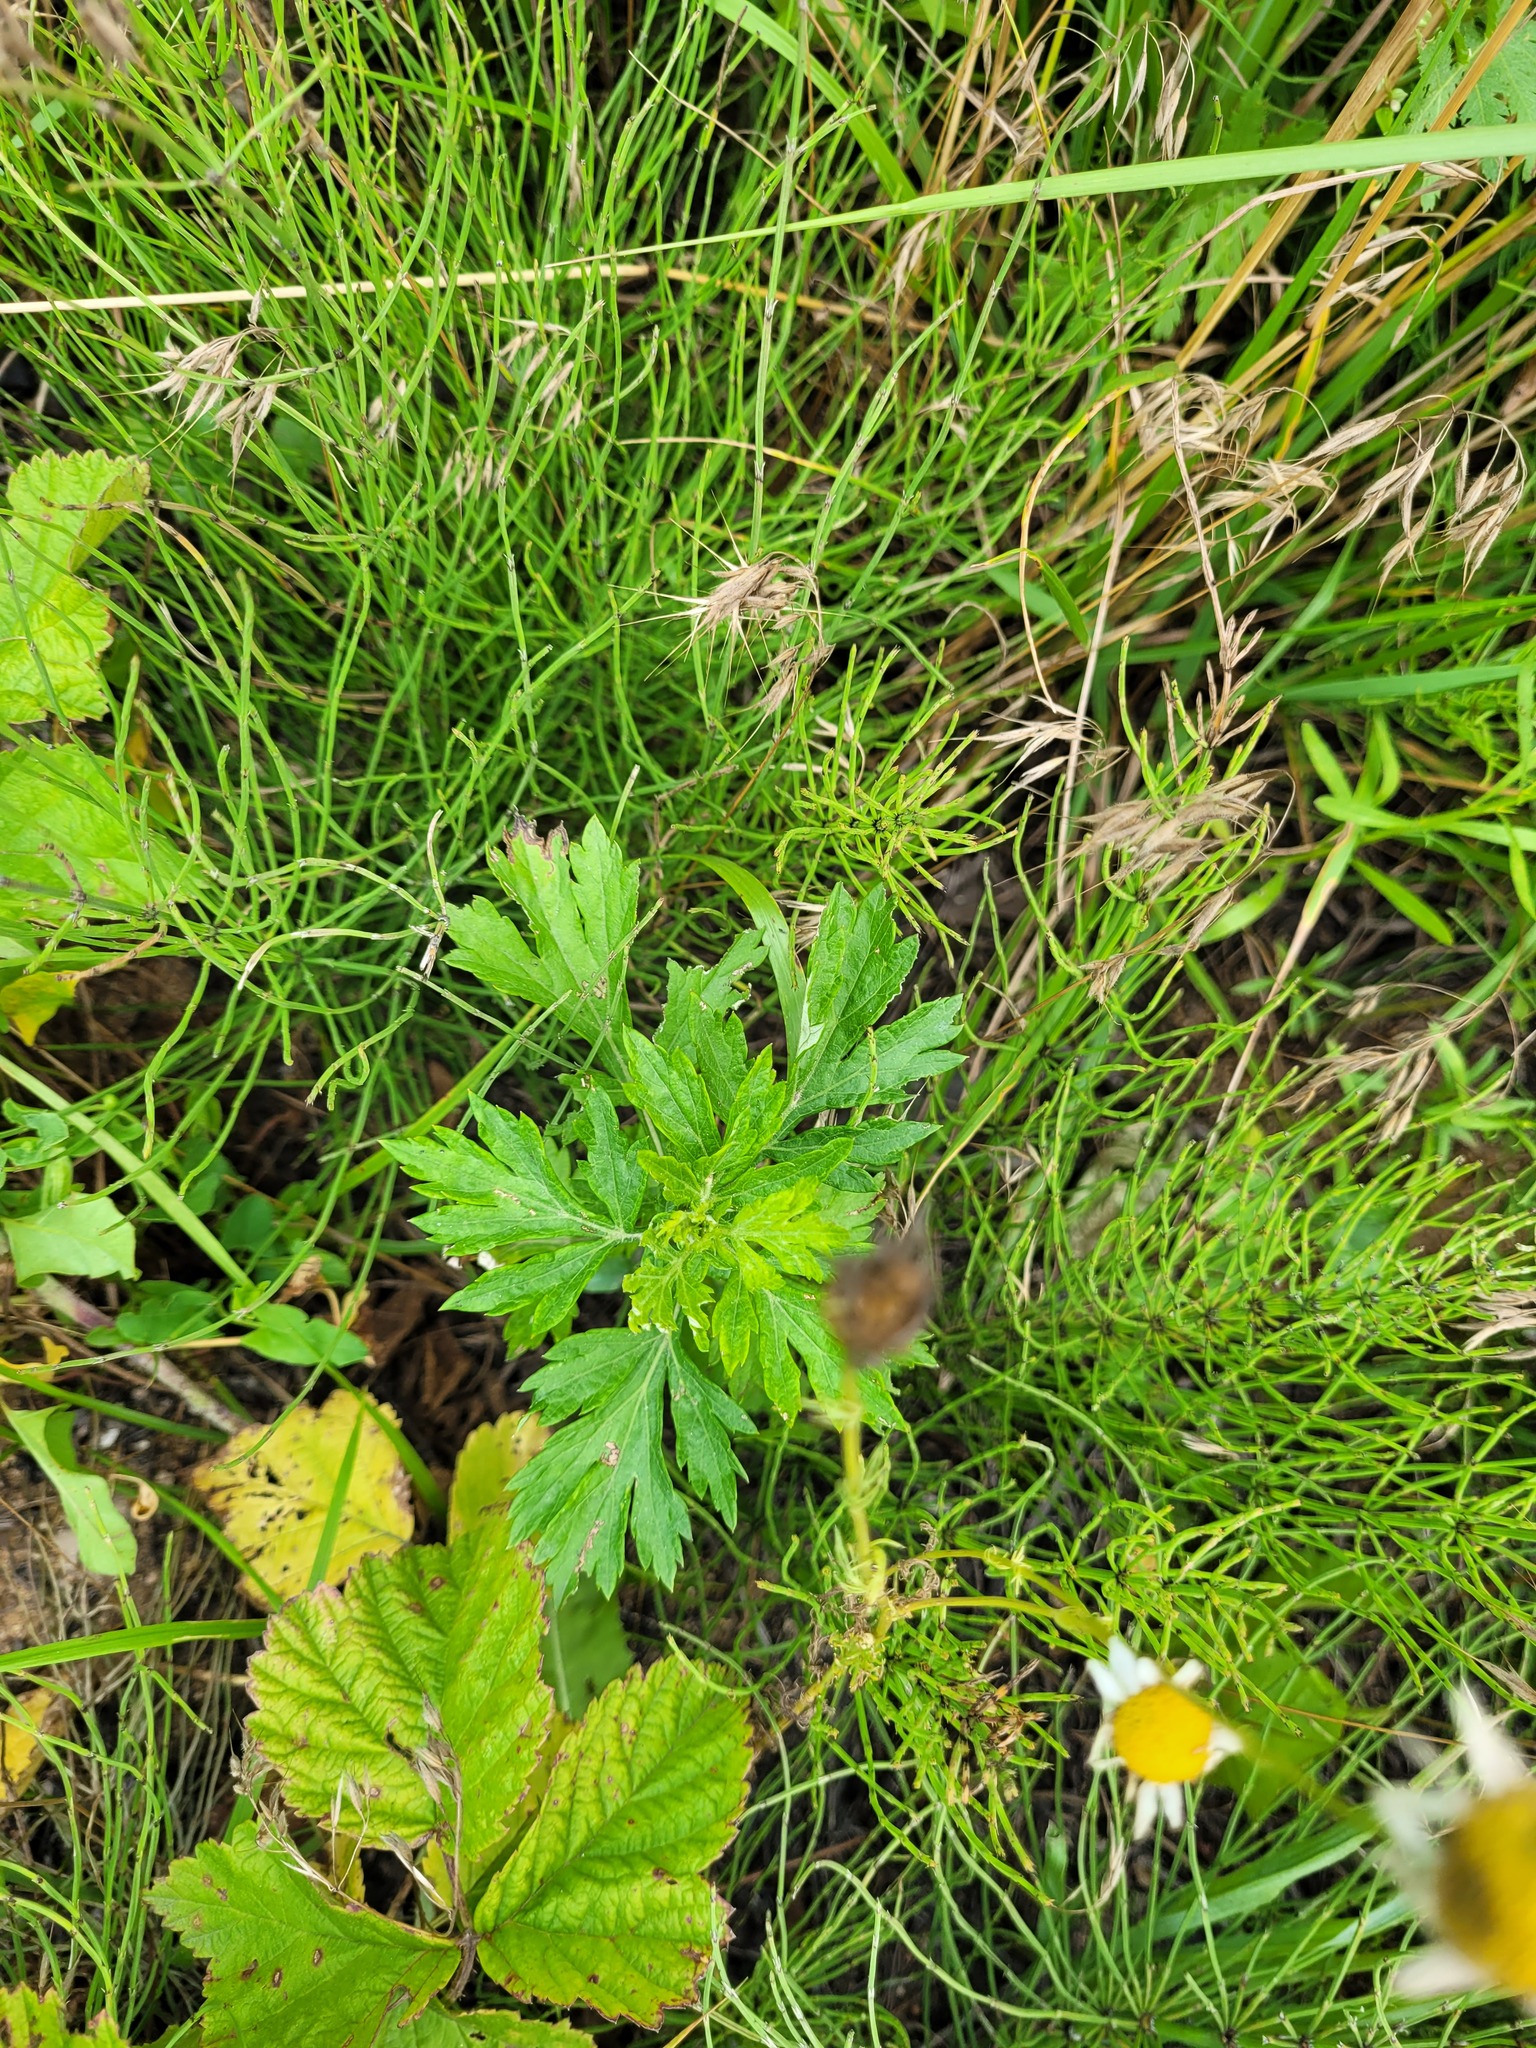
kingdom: Plantae
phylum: Tracheophyta
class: Magnoliopsida
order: Asterales
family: Asteraceae
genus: Artemisia
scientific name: Artemisia vulgaris
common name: Mugwort
